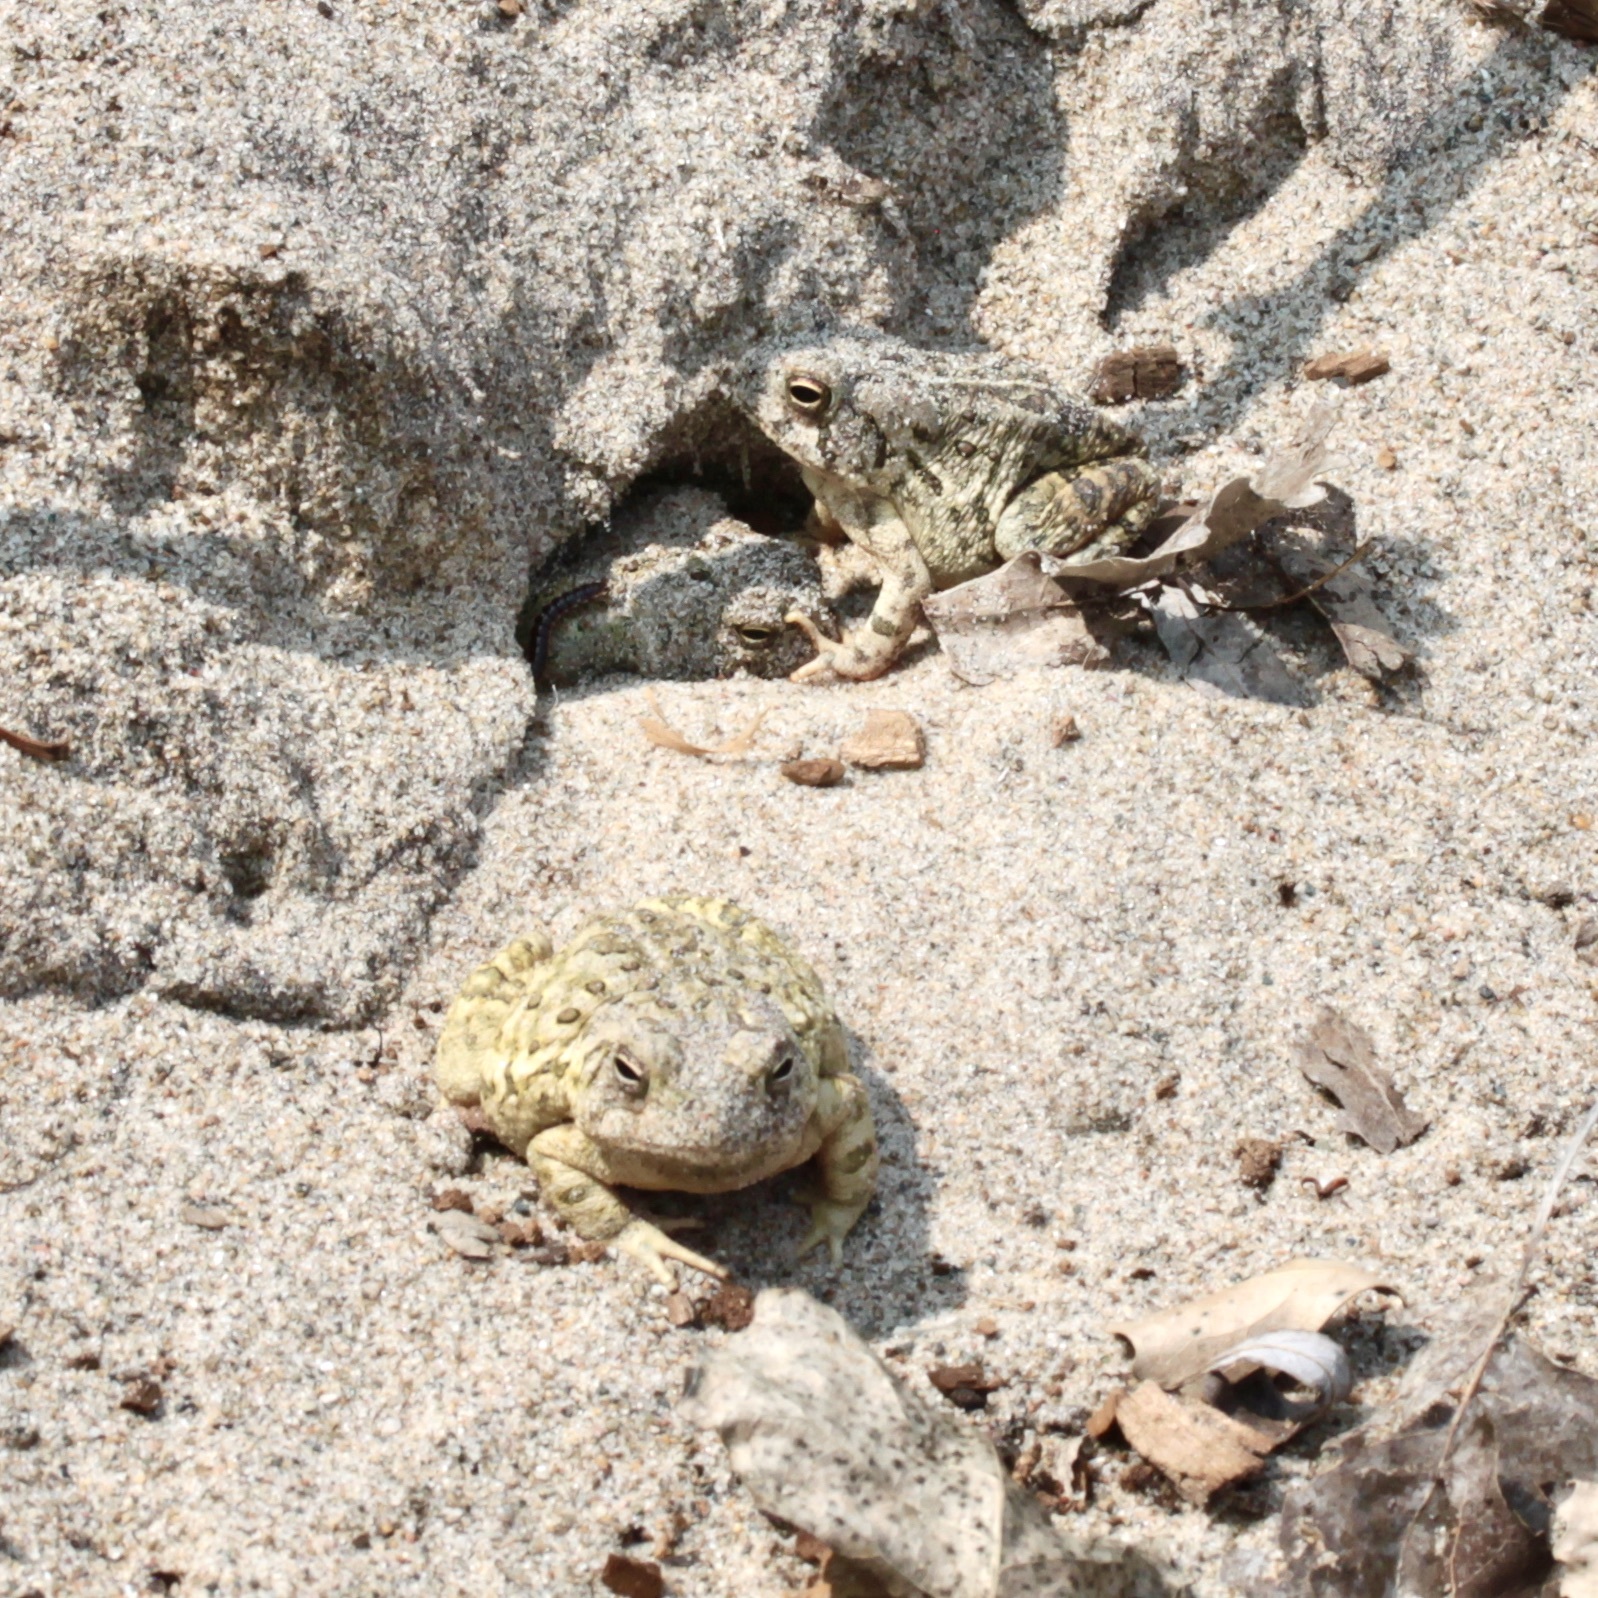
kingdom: Animalia
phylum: Chordata
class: Amphibia
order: Anura
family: Bufonidae
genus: Anaxyrus
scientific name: Anaxyrus fowleri
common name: Fowler's toad
